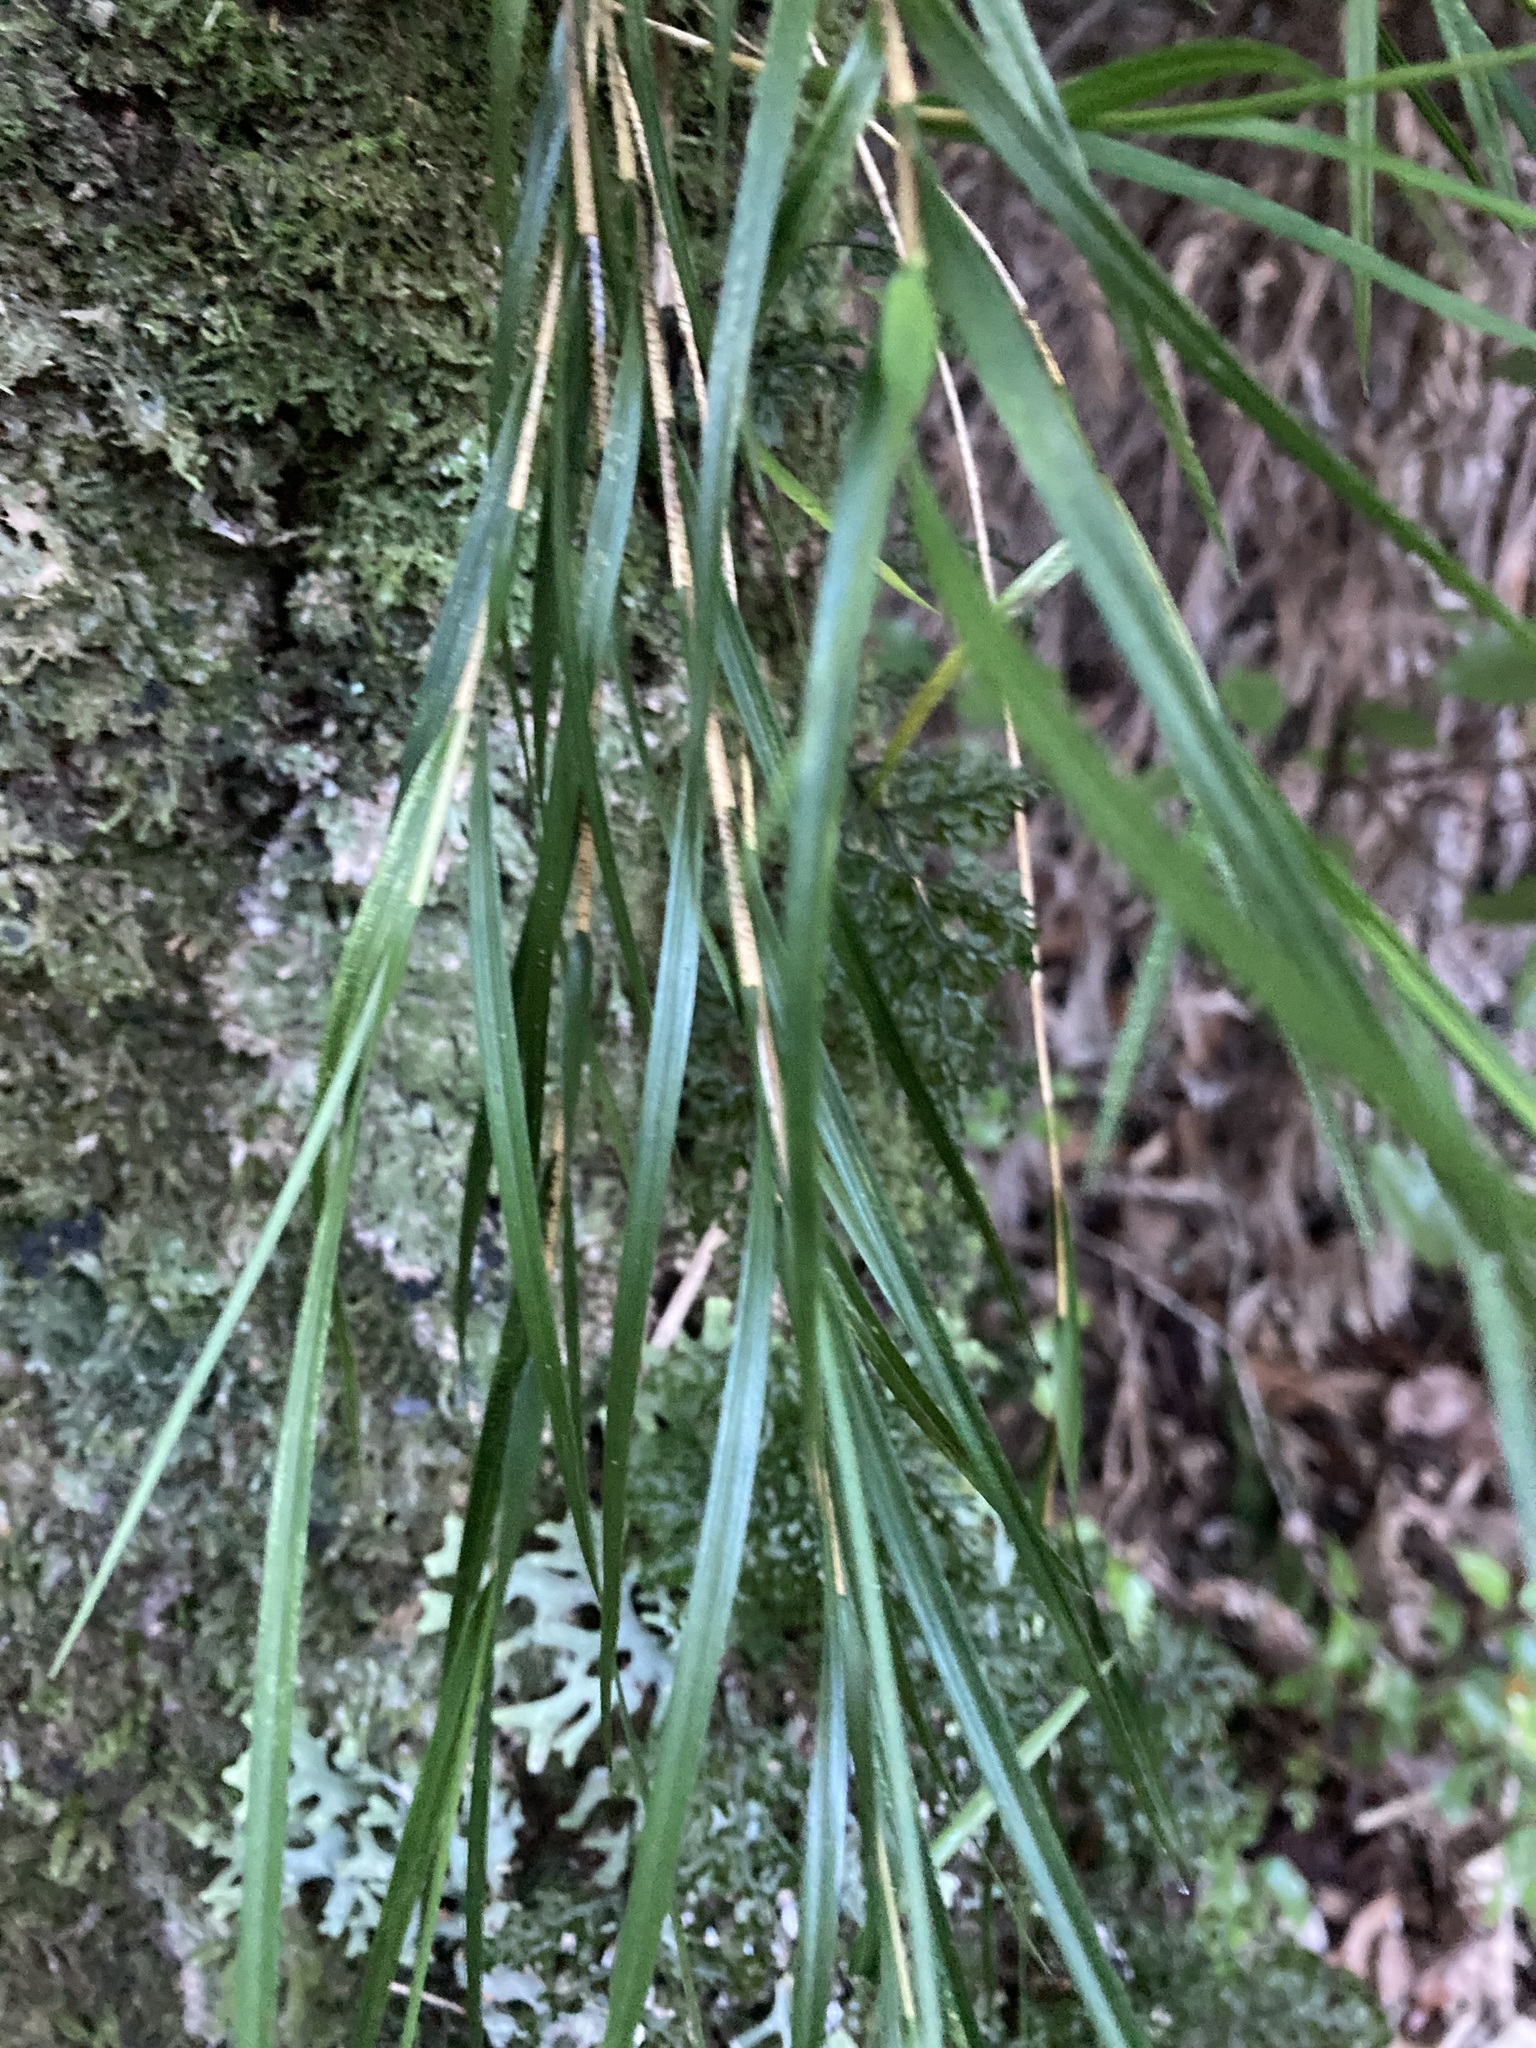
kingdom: Plantae
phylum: Tracheophyta
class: Liliopsida
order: Asparagales
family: Orchidaceae
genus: Earina
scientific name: Earina mucronata
